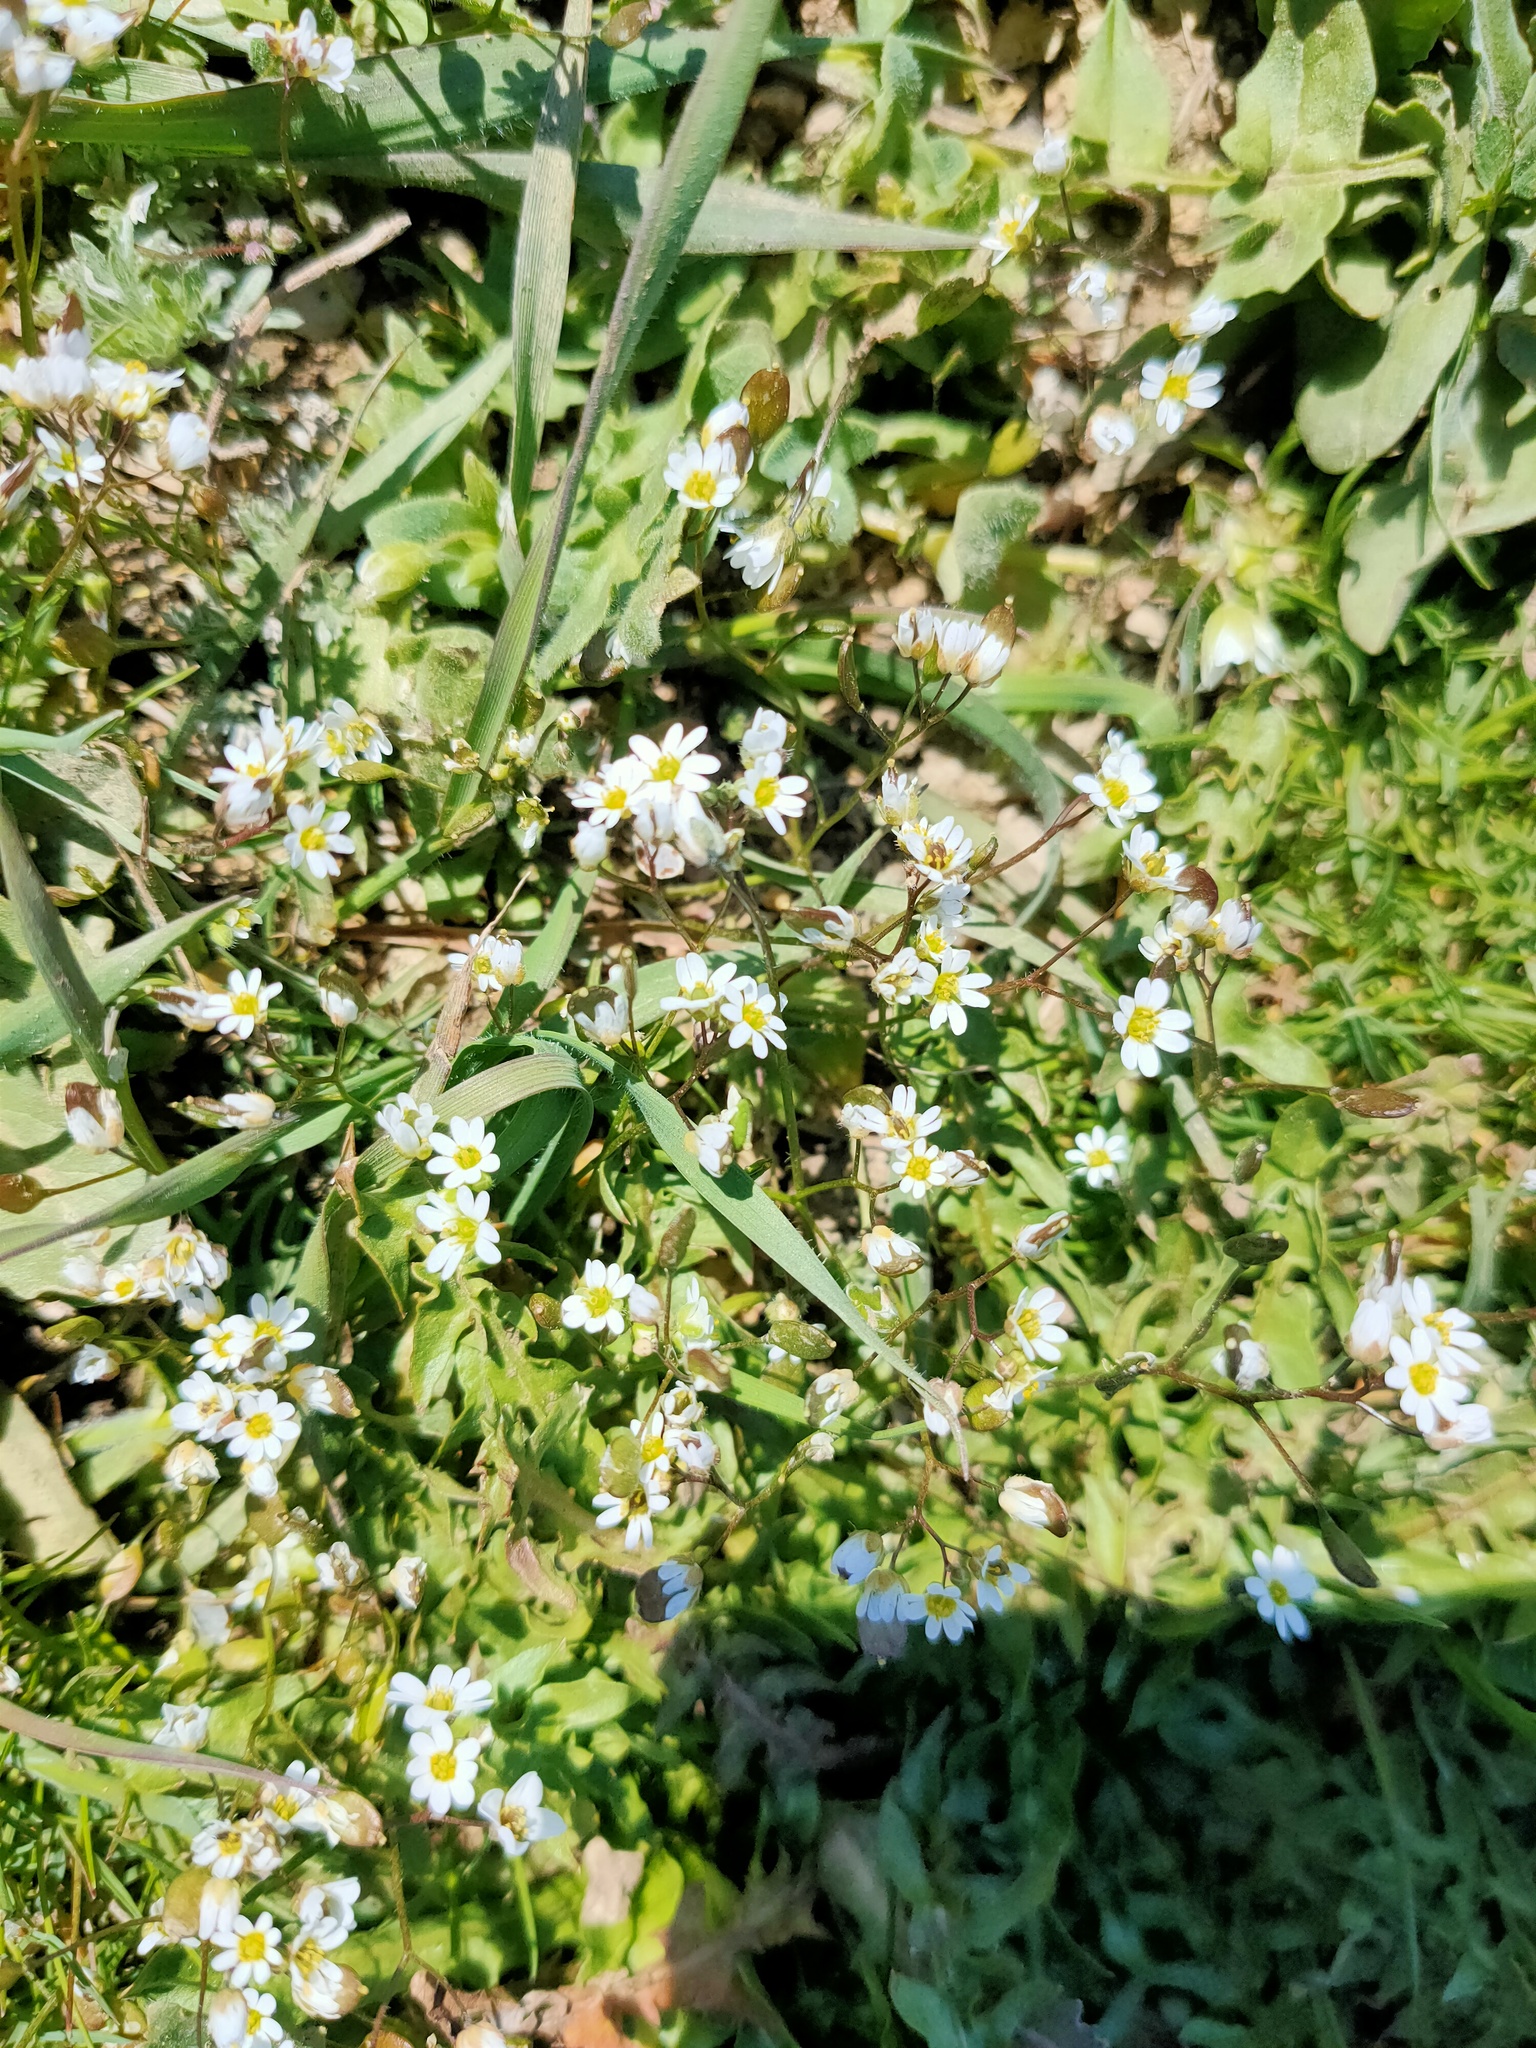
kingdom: Plantae
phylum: Tracheophyta
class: Magnoliopsida
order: Brassicales
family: Brassicaceae
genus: Draba
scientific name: Draba verna
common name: Spring draba
